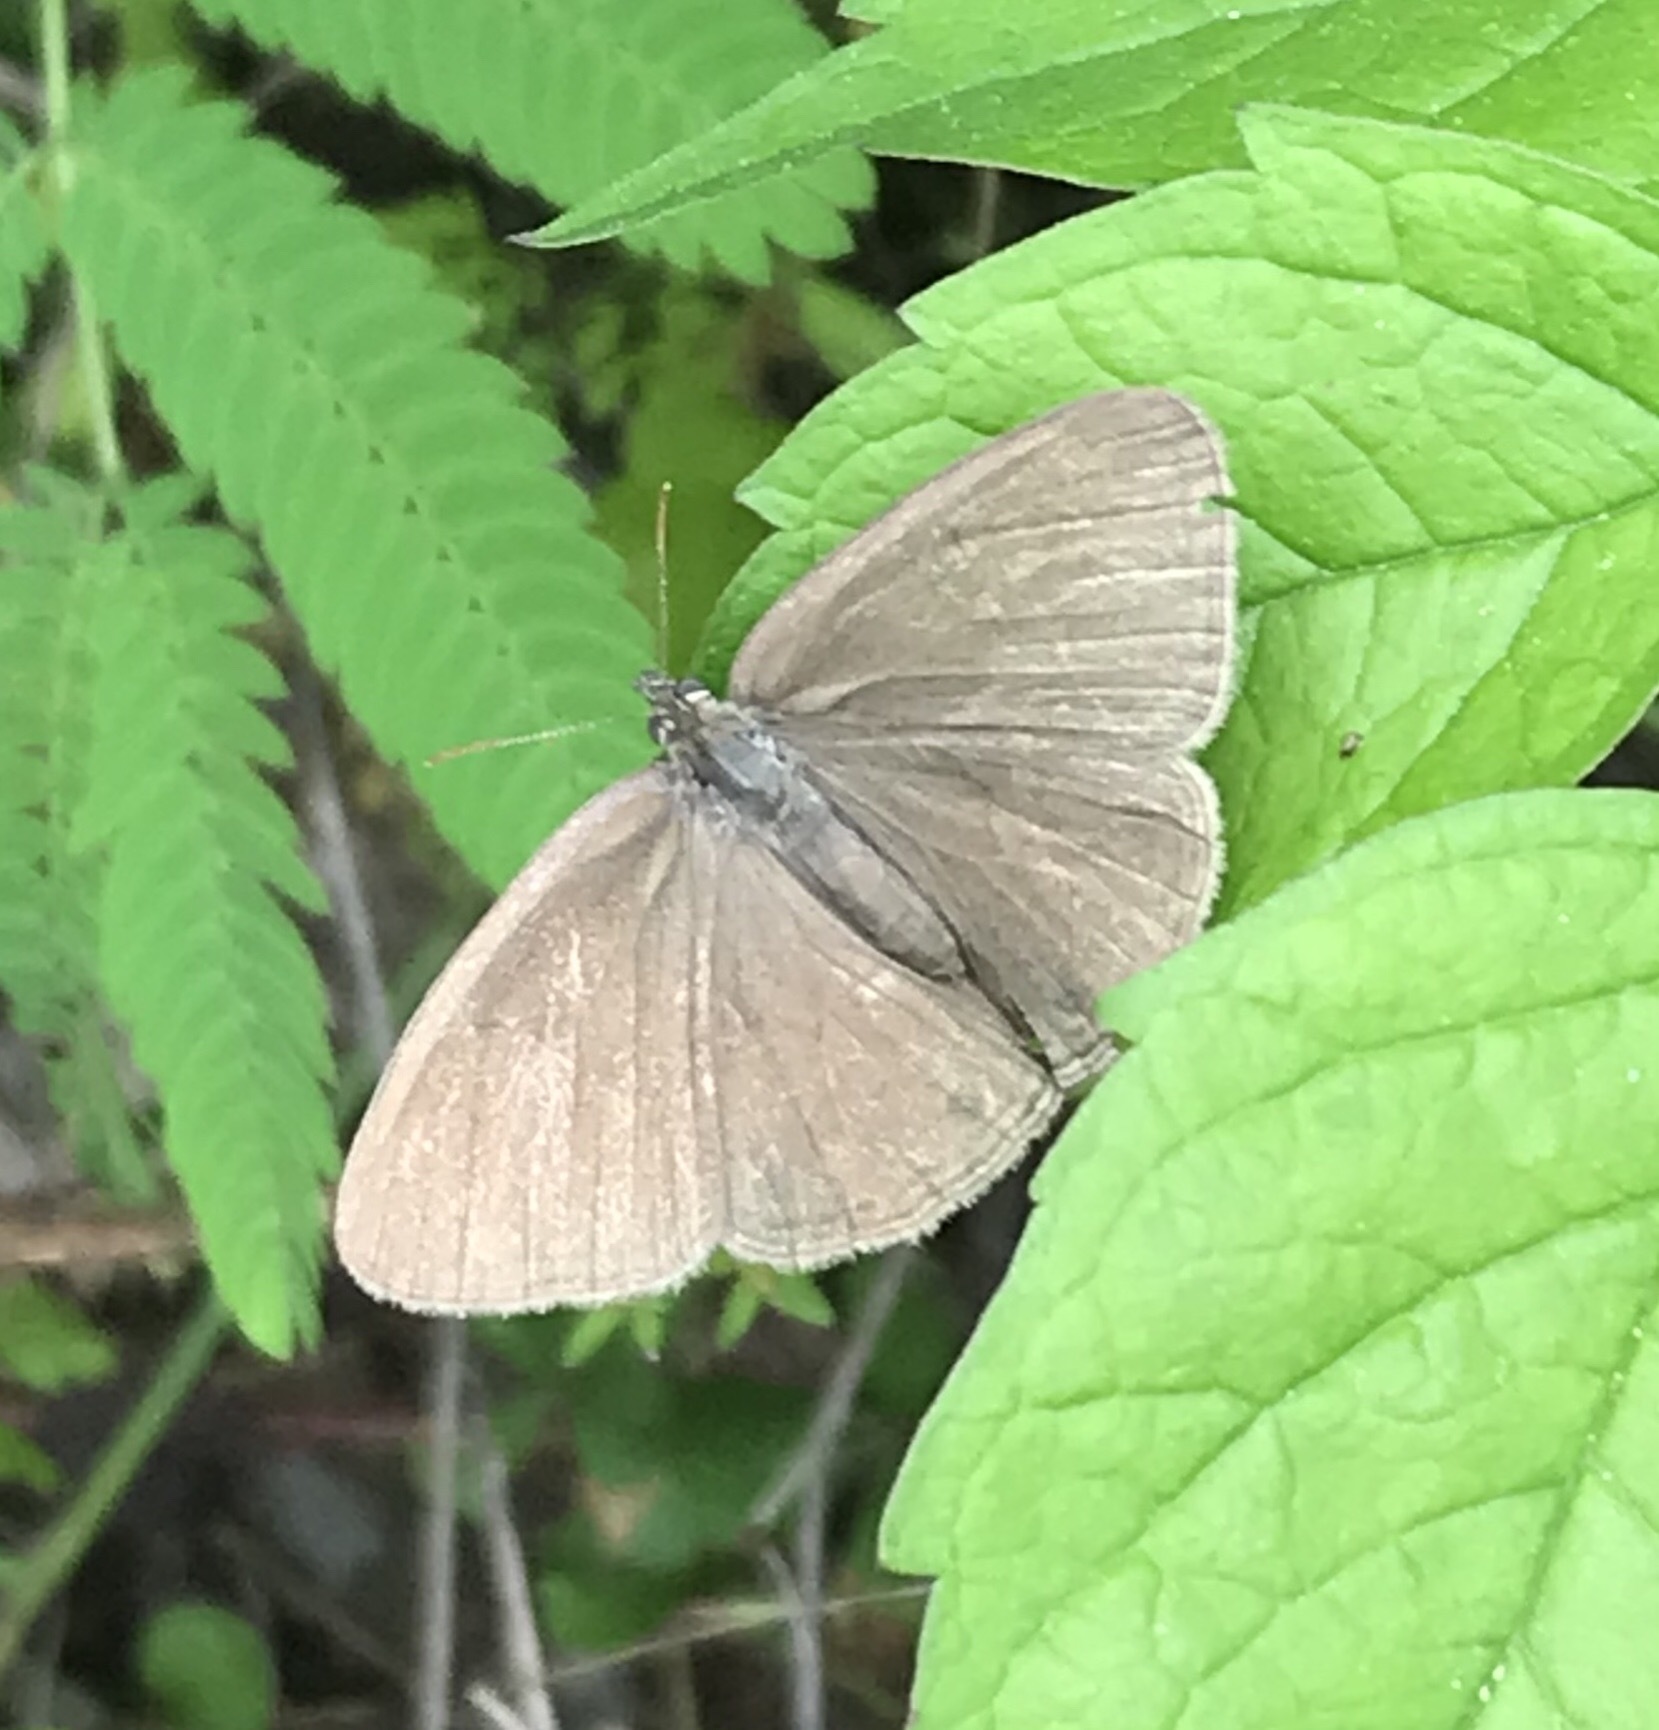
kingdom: Animalia
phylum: Arthropoda
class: Insecta
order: Lepidoptera
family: Nymphalidae
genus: Hermeuptychia
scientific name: Hermeuptychia hermes
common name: Hermes satyr
